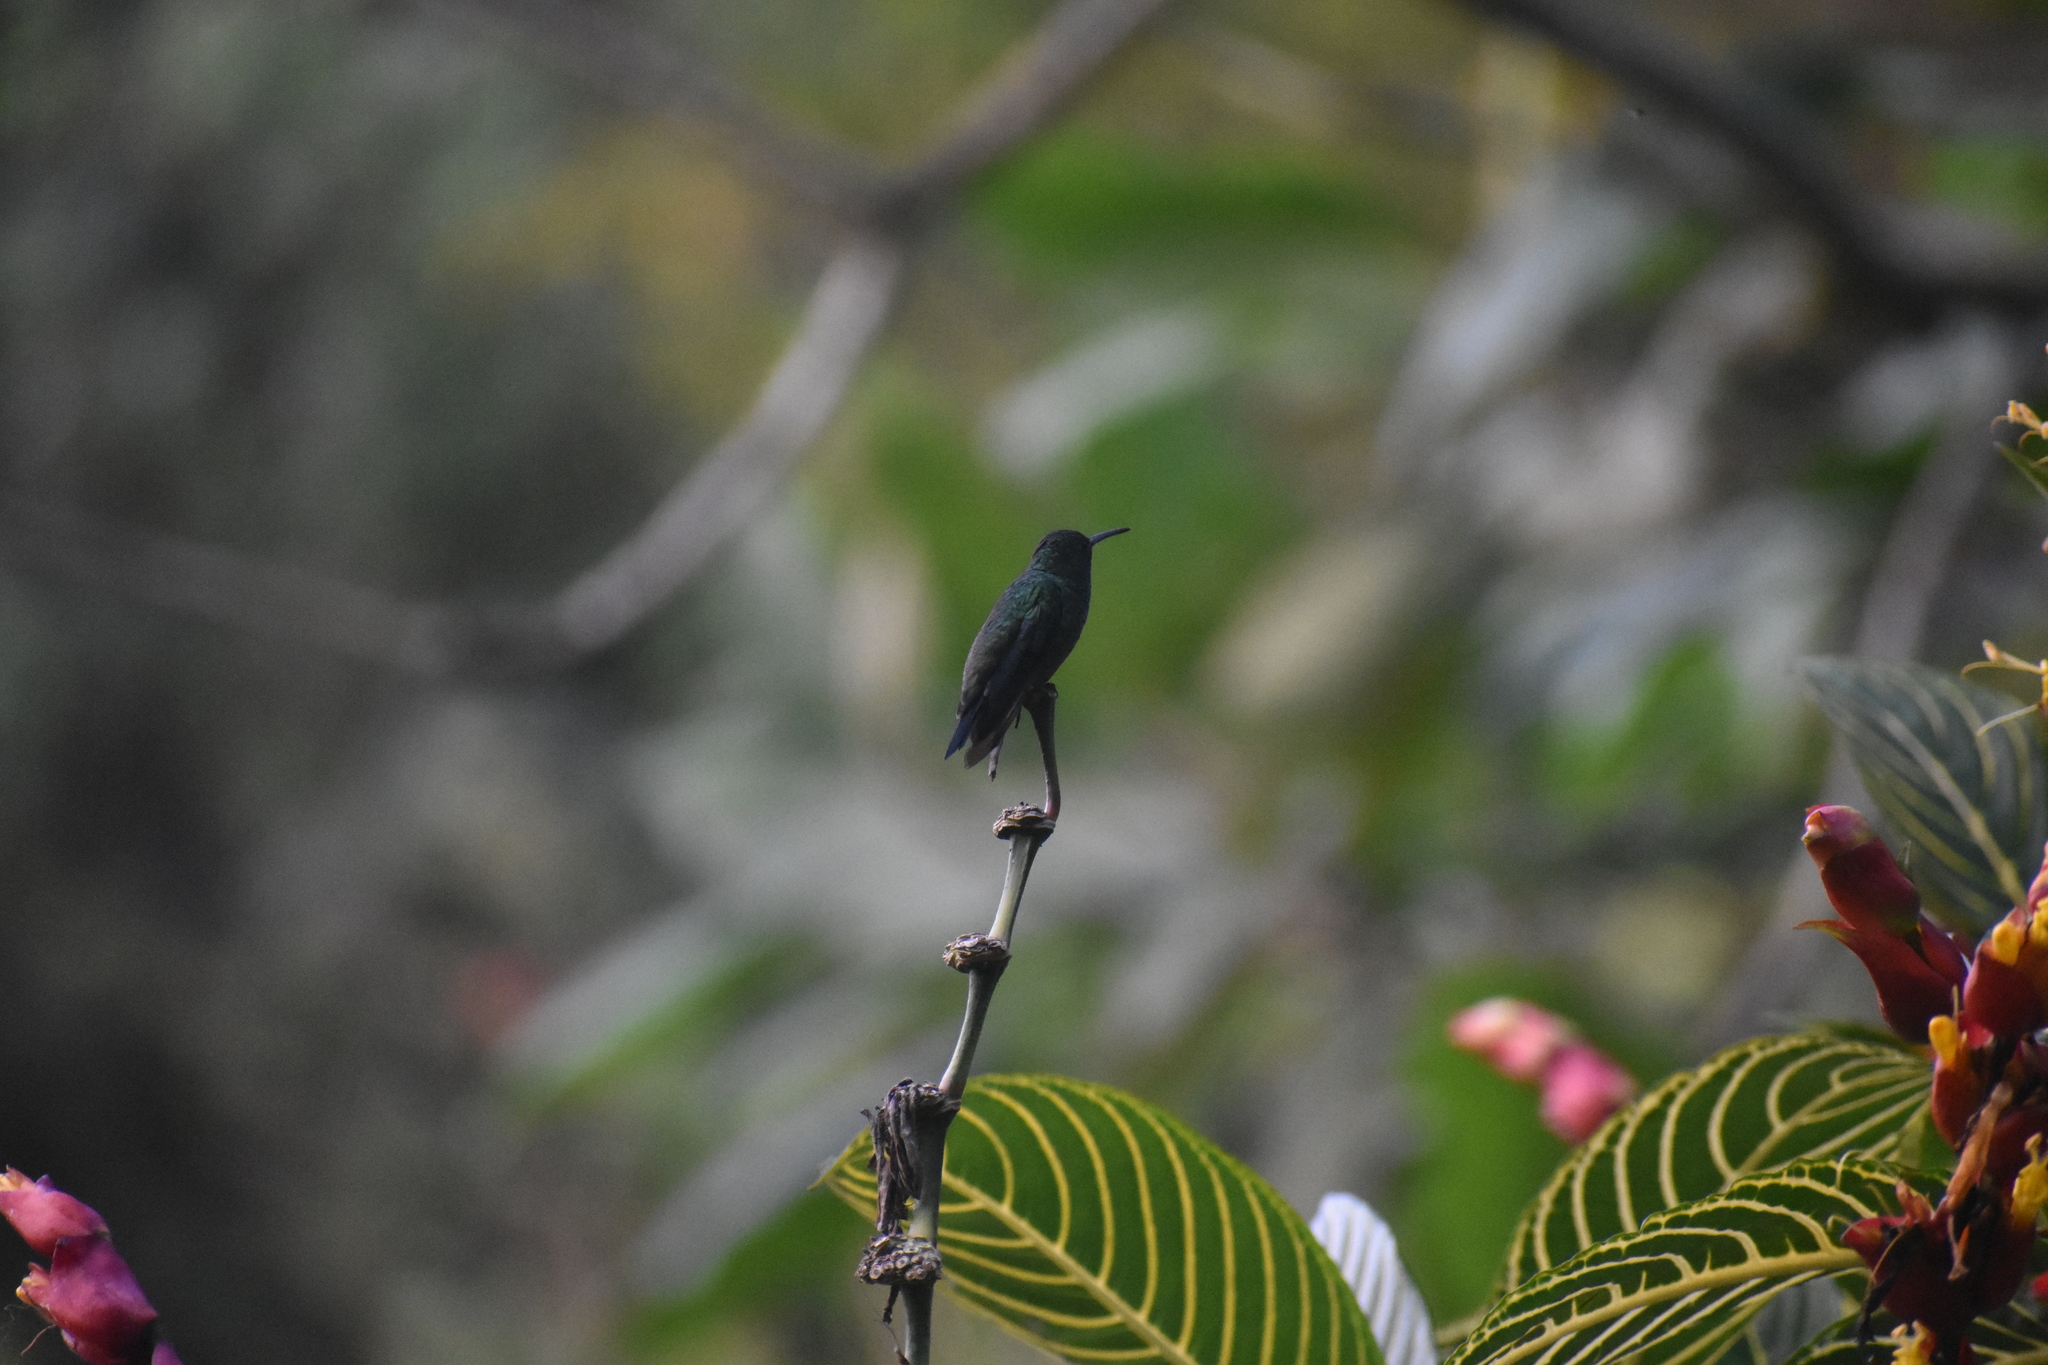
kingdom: Animalia
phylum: Chordata
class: Aves
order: Apodiformes
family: Trochilidae
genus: Saucerottia
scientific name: Saucerottia saucerottei
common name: Steely-vented hummingbird
